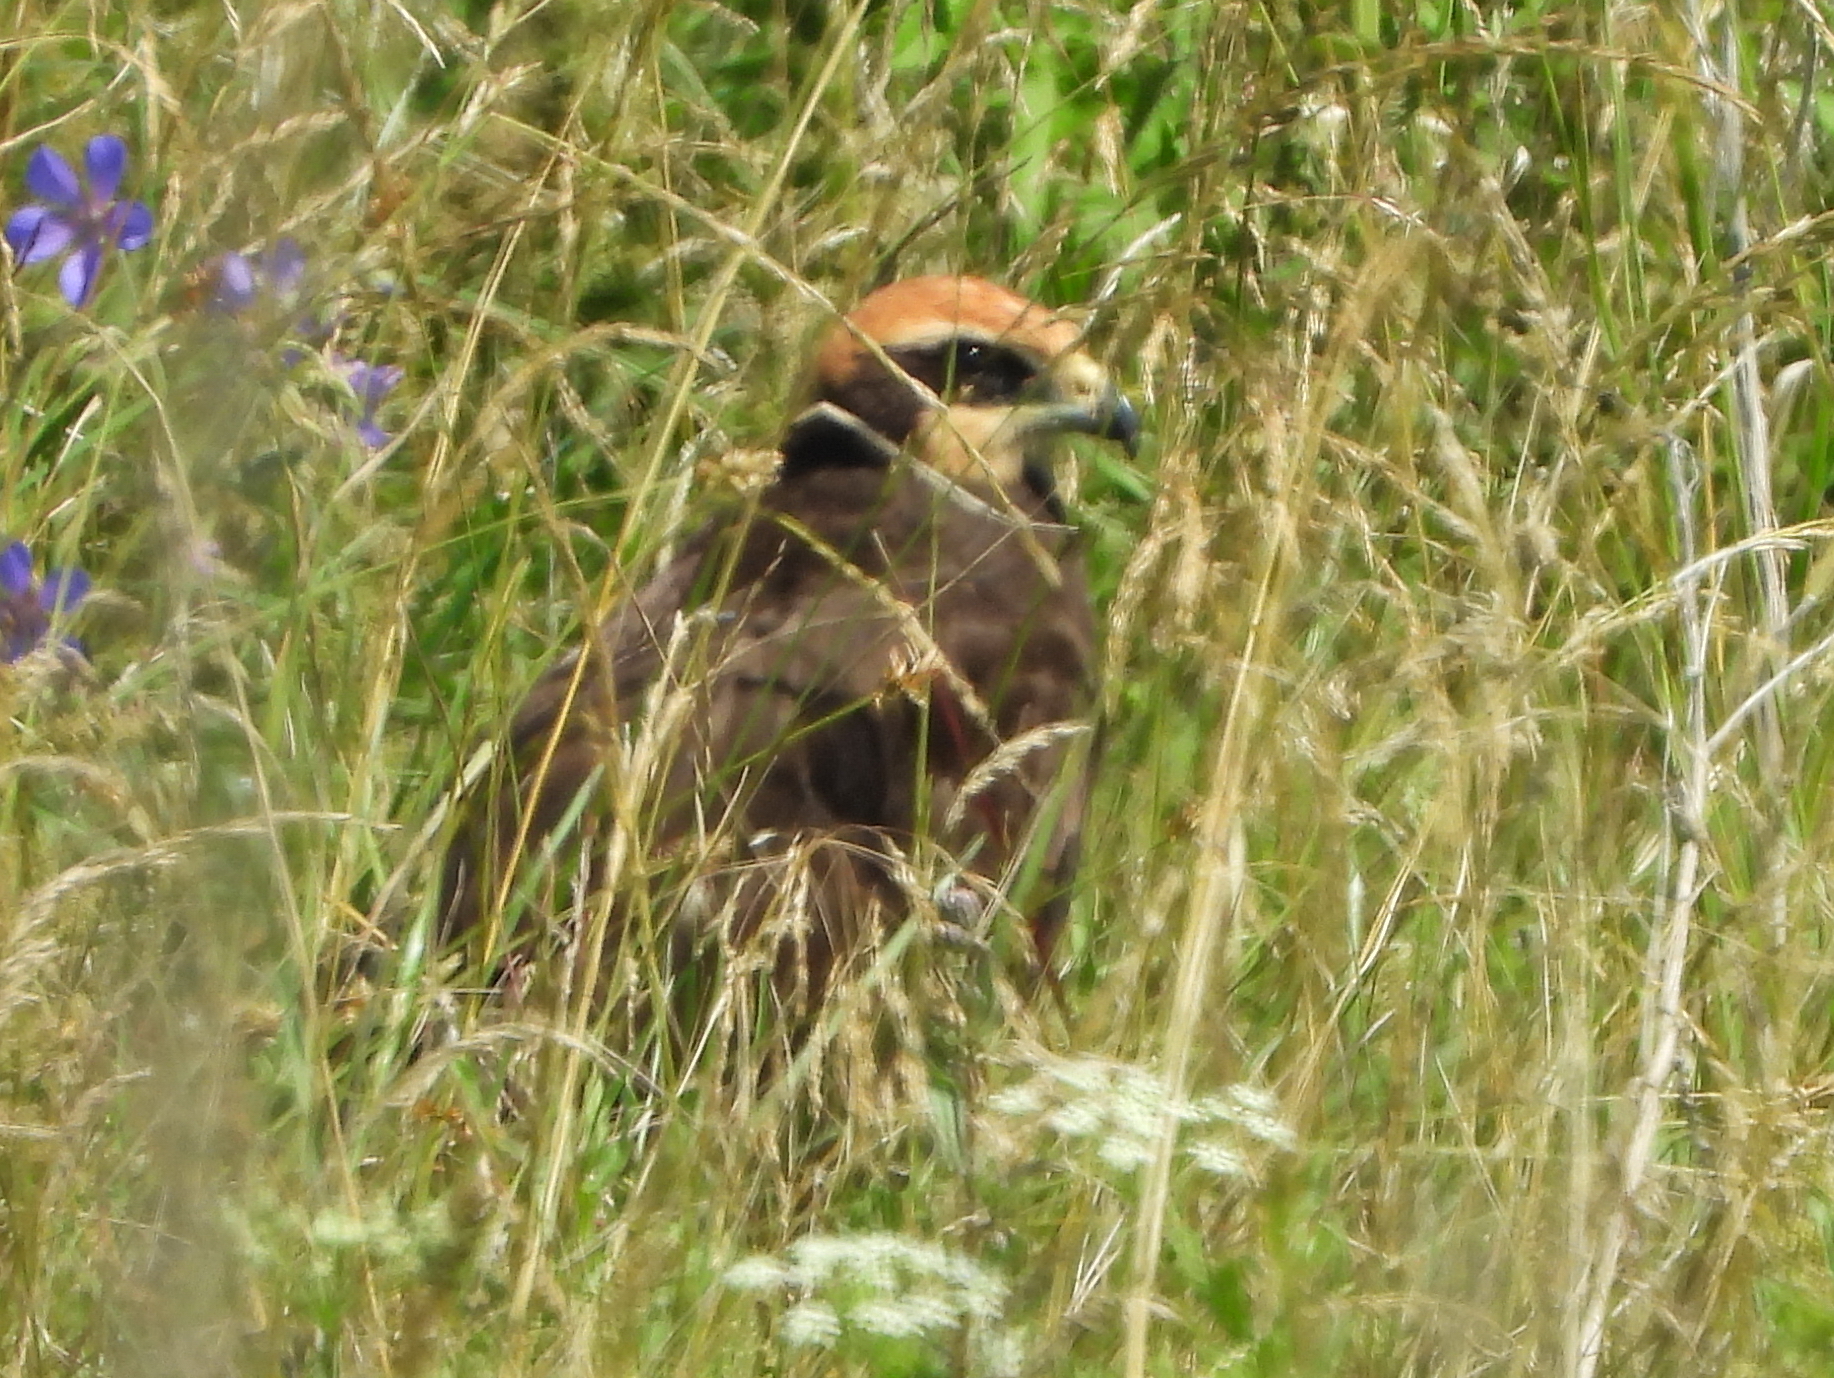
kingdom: Animalia
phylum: Chordata
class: Aves
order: Accipitriformes
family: Accipitridae
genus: Circus
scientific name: Circus aeruginosus
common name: Western marsh harrier
